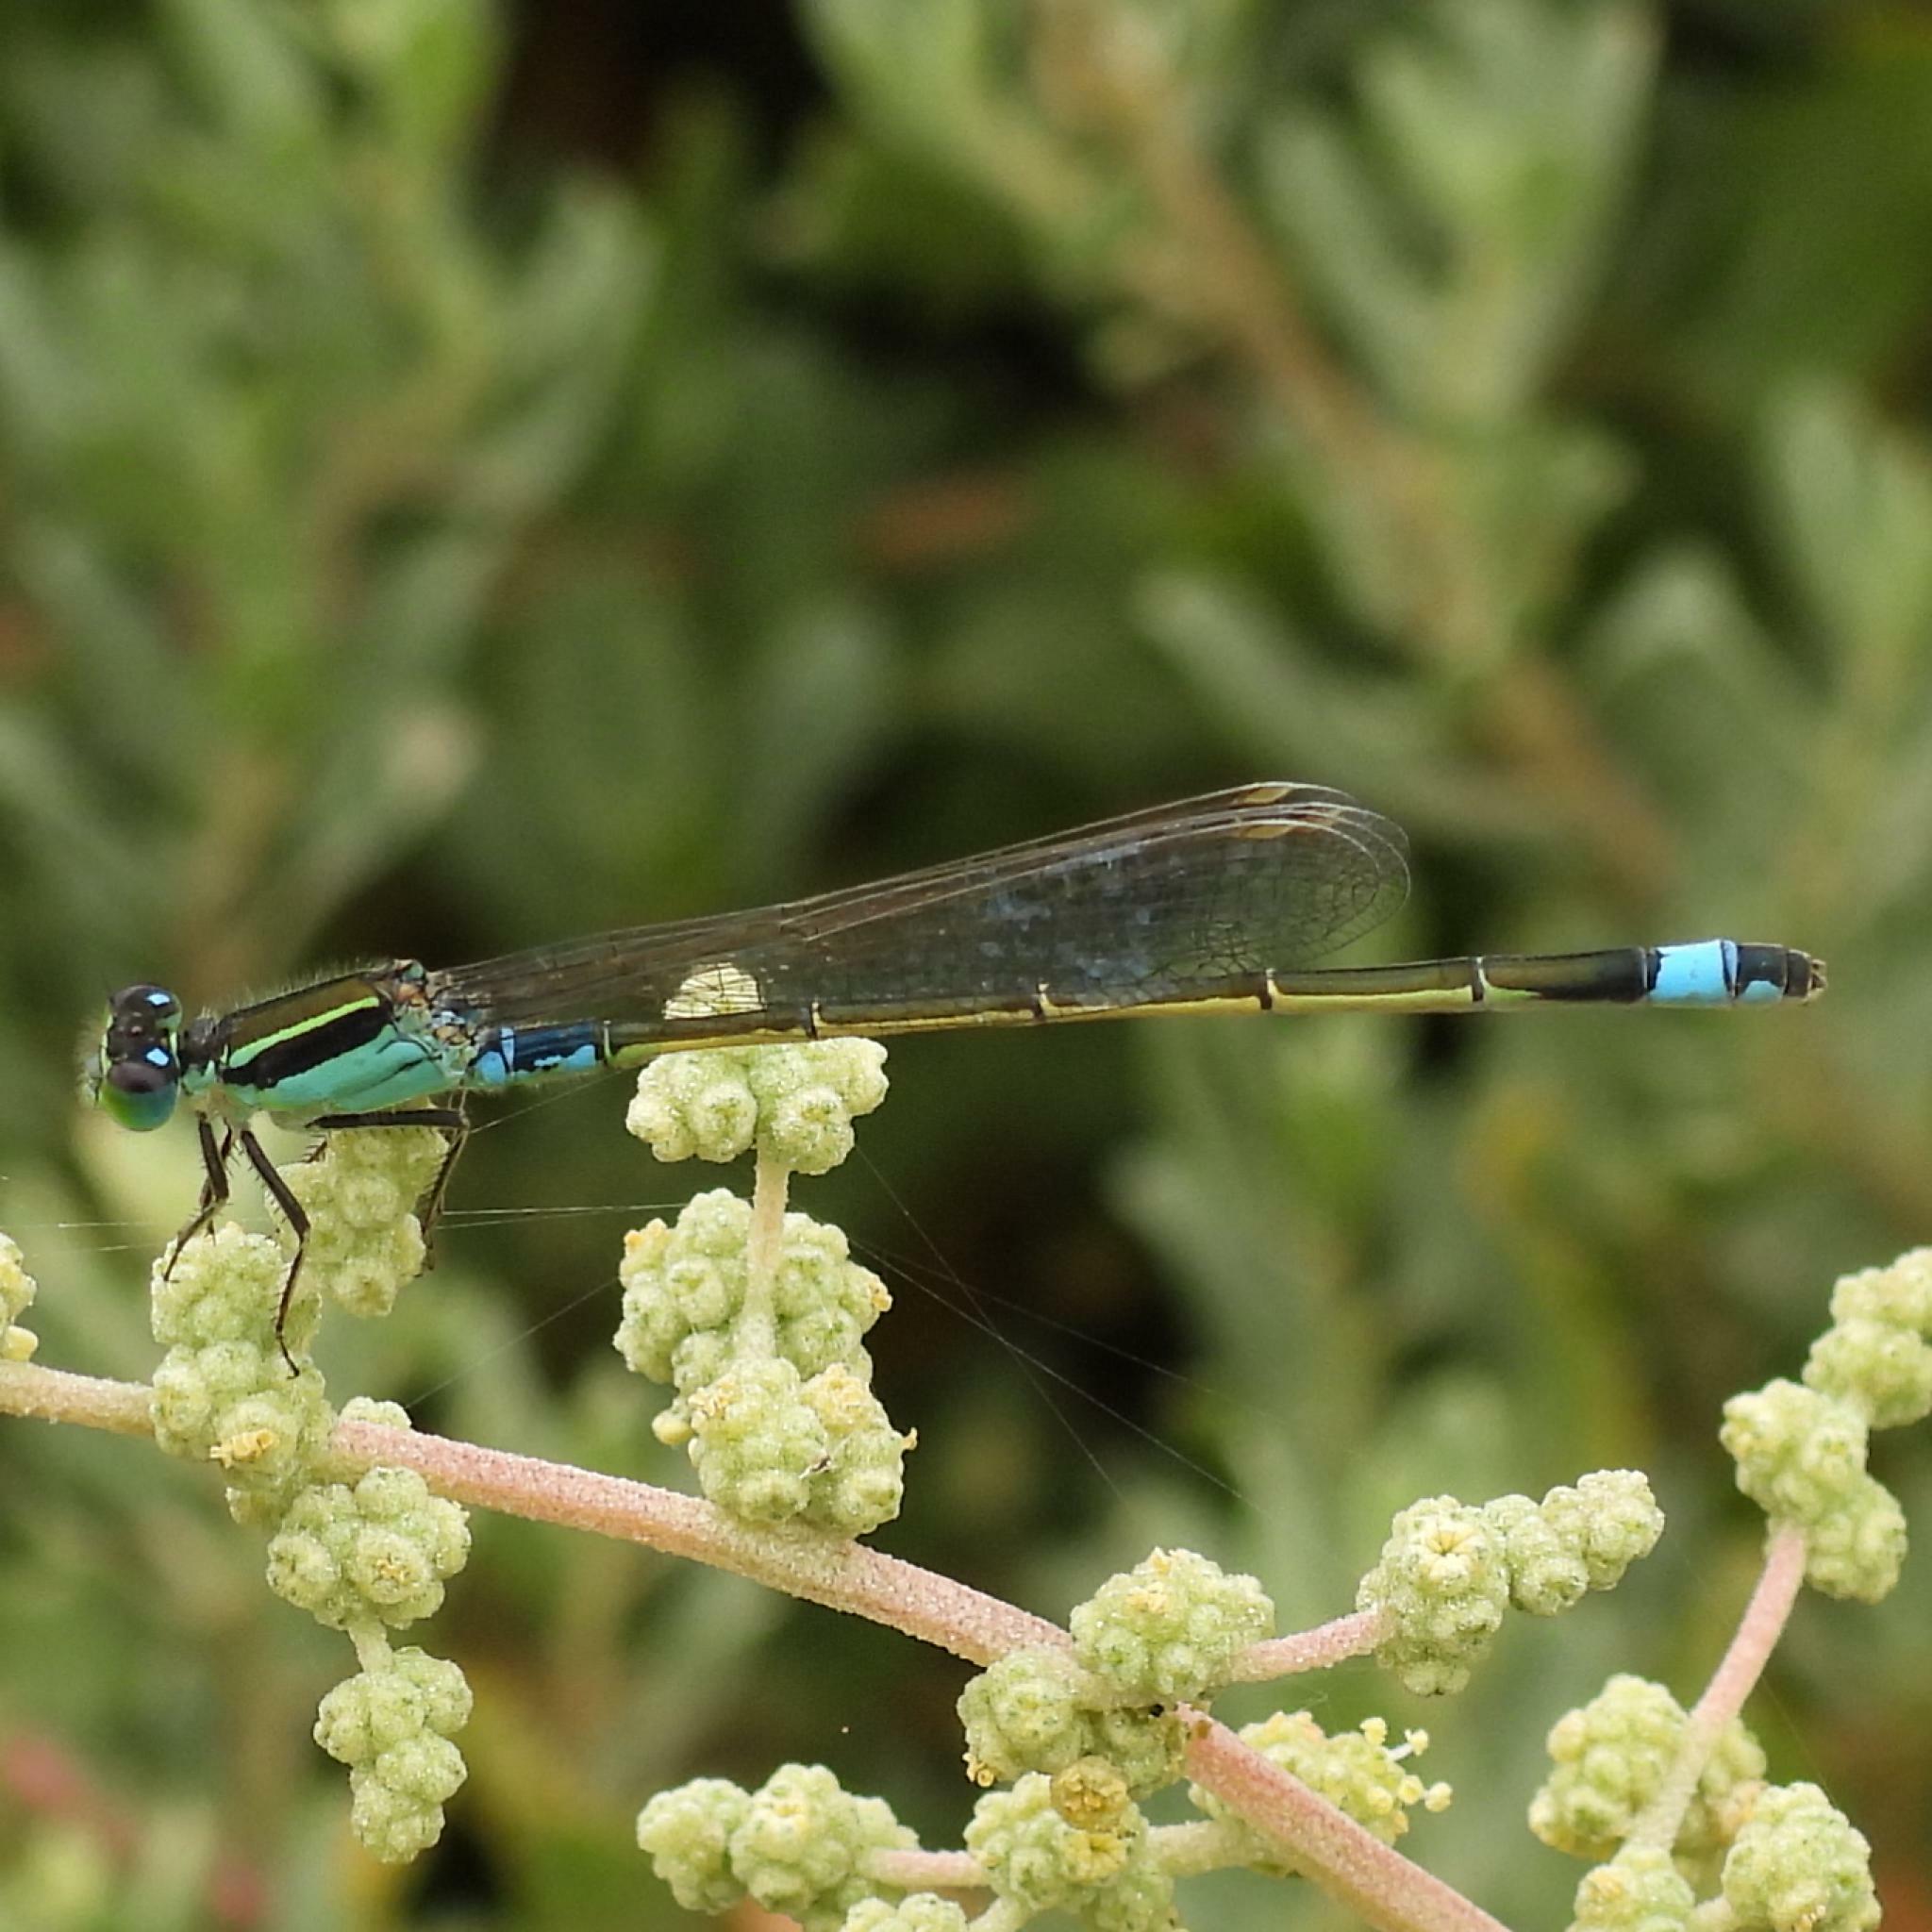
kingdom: Animalia
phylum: Arthropoda
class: Insecta
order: Odonata
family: Coenagrionidae
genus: Ischnura
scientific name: Ischnura senegalensis
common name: Tropical bluetail
